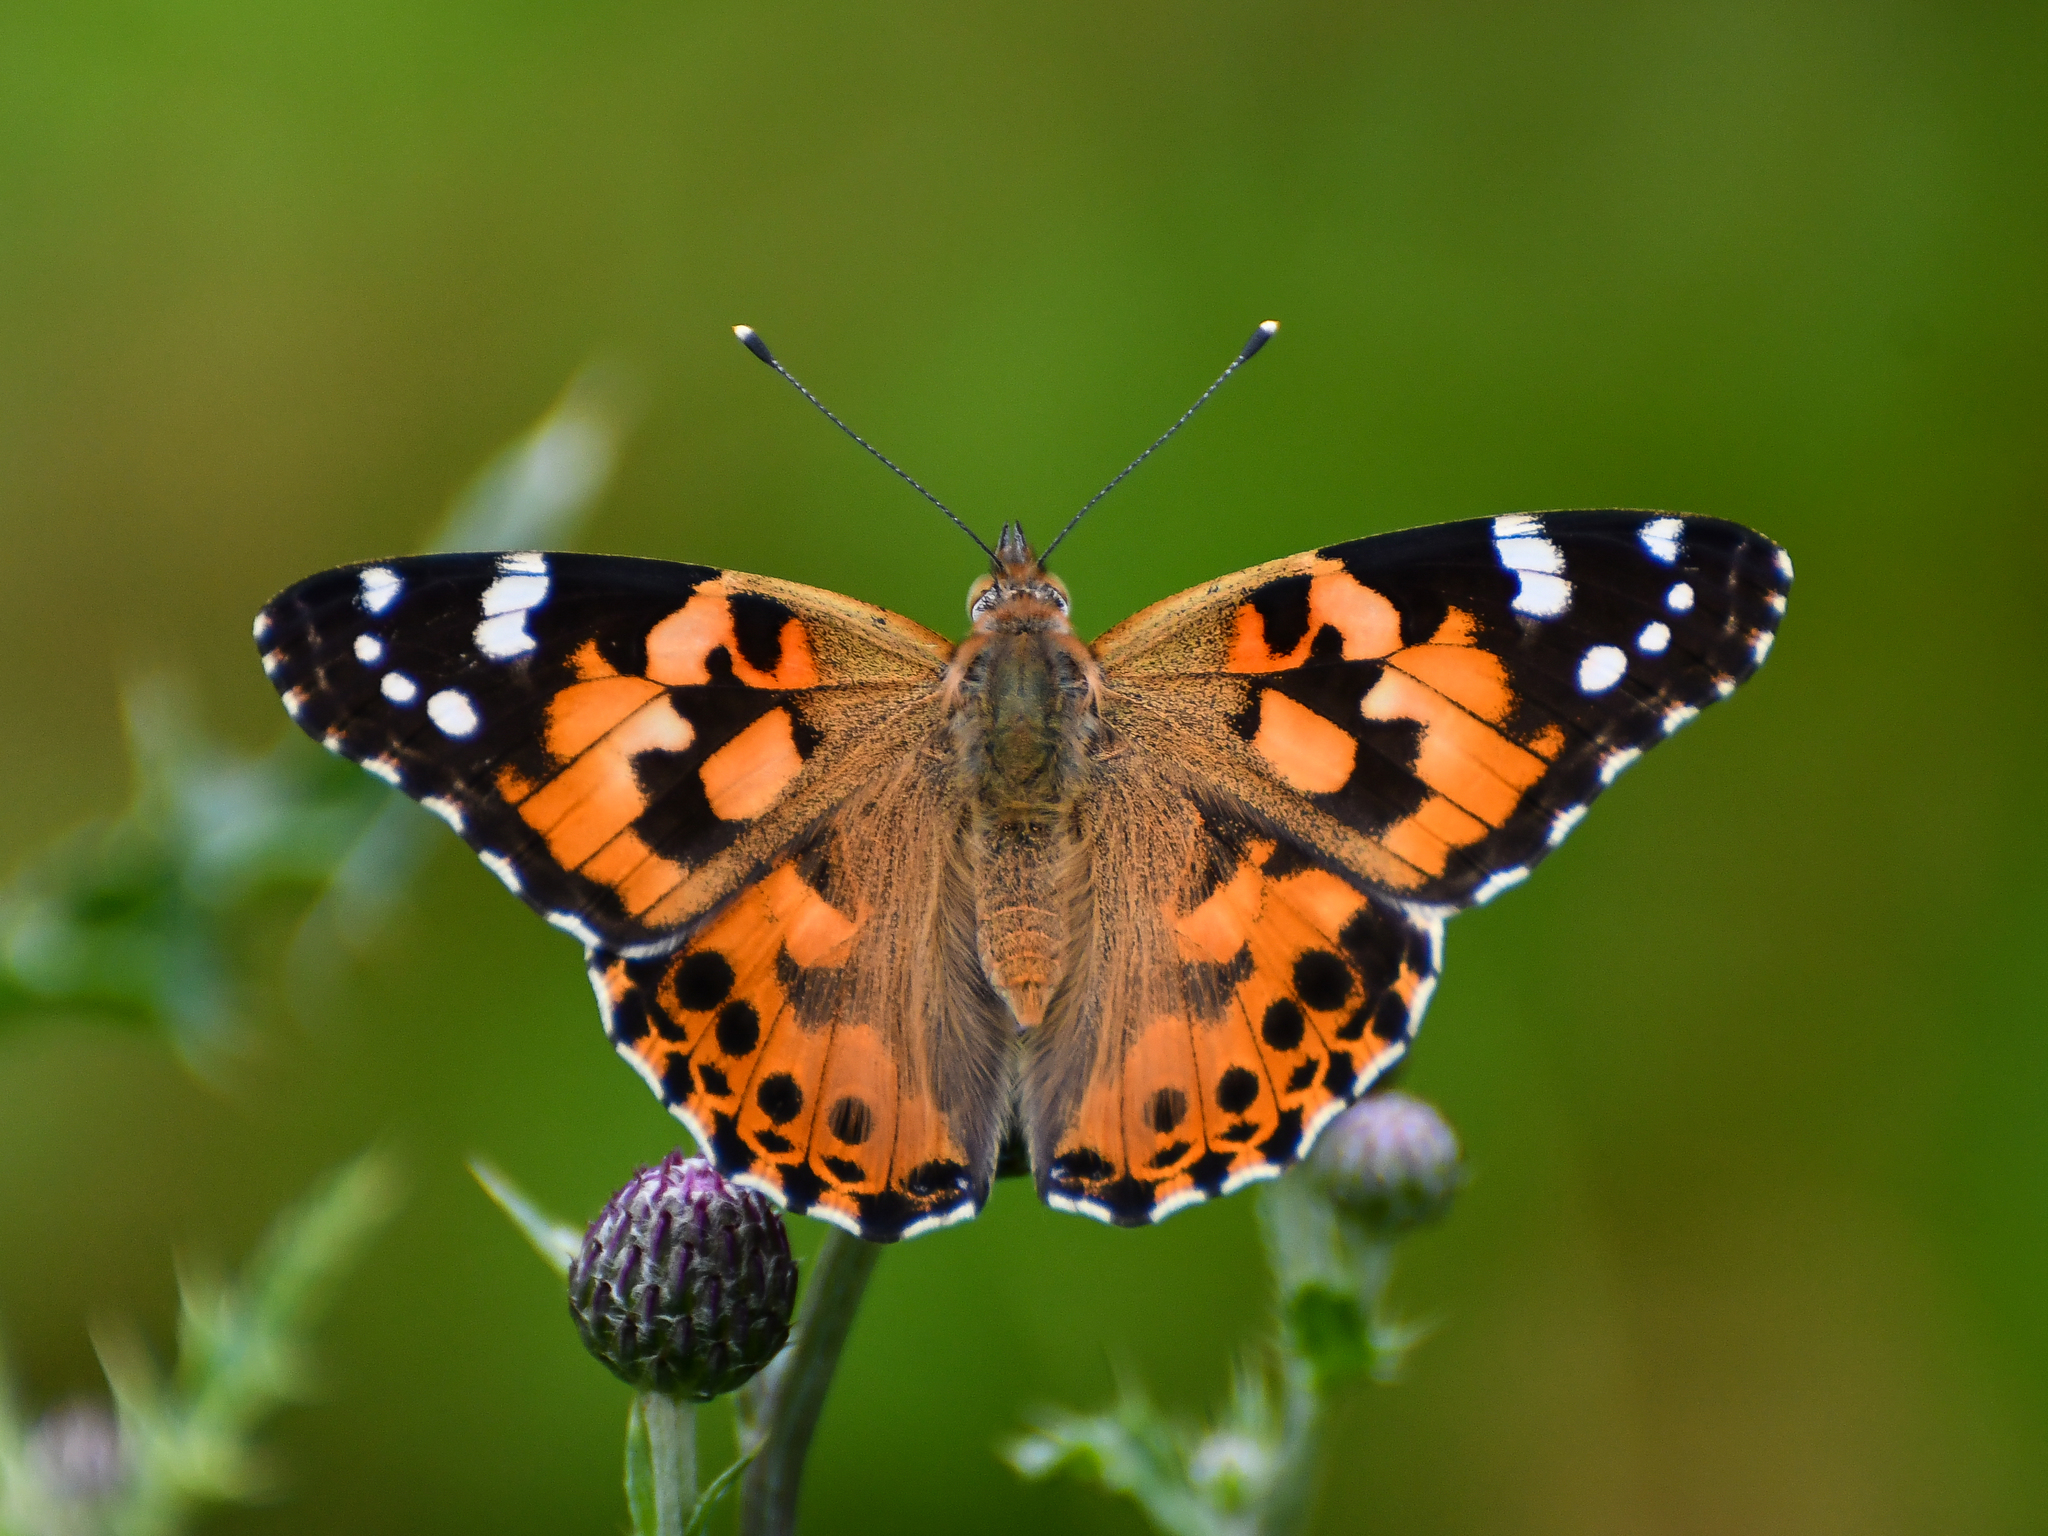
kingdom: Animalia
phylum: Arthropoda
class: Insecta
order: Lepidoptera
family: Nymphalidae
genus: Vanessa
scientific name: Vanessa cardui
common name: Painted lady
